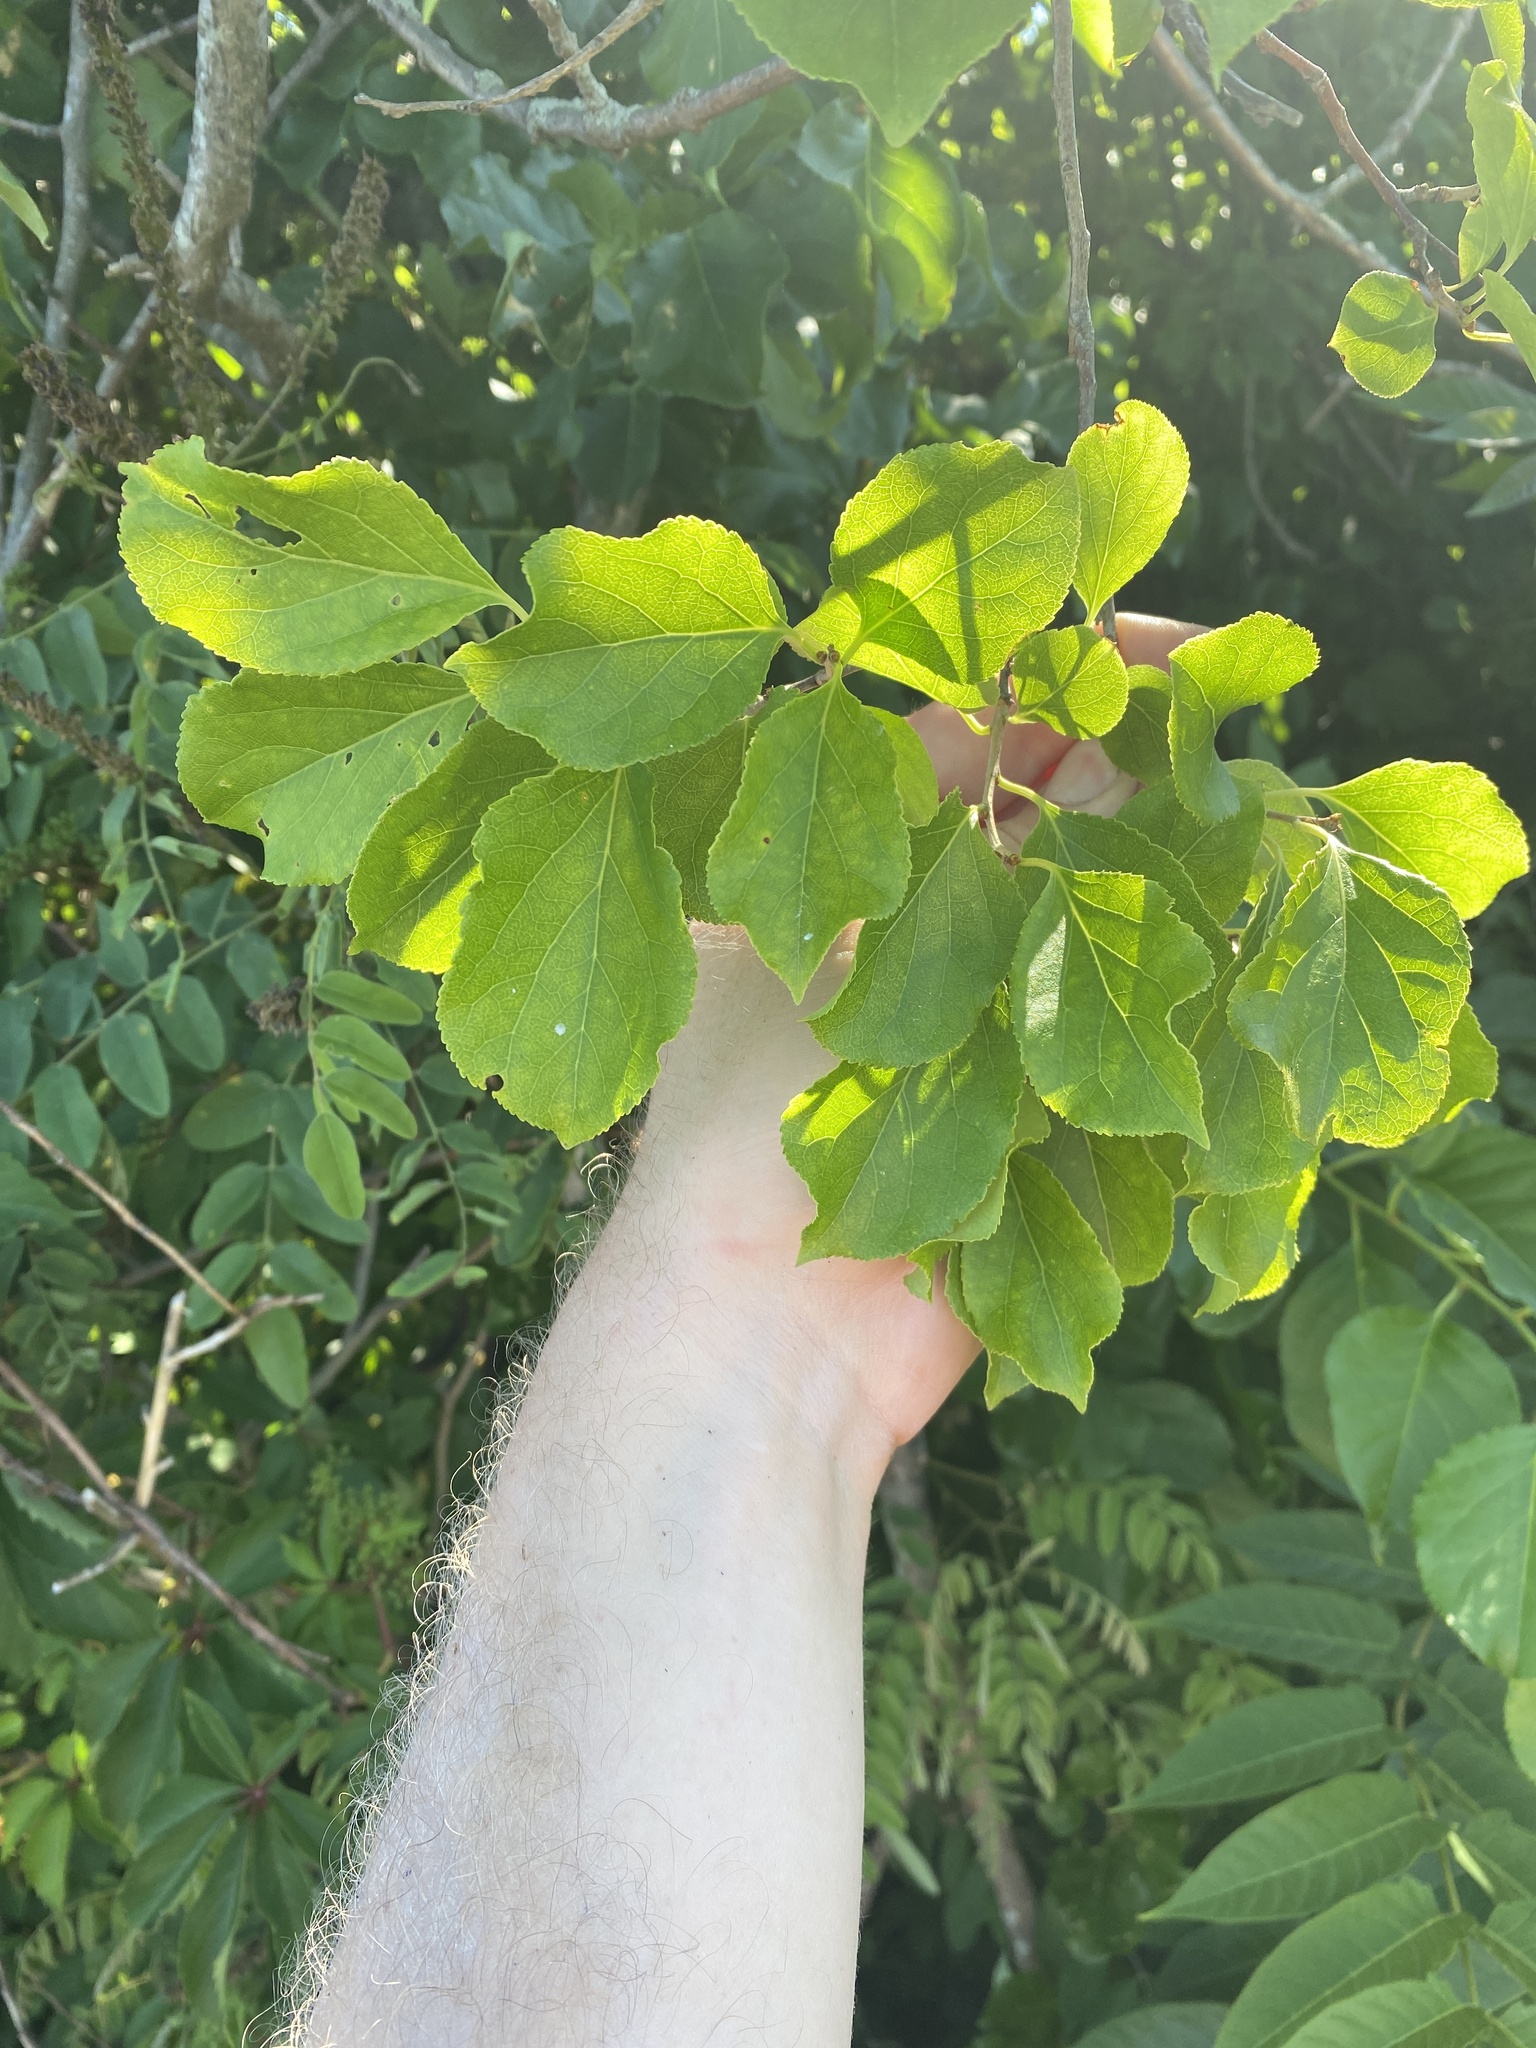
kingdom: Plantae
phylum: Tracheophyta
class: Magnoliopsida
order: Celastrales
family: Celastraceae
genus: Celastrus
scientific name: Celastrus orbiculatus
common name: Oriental bittersweet
